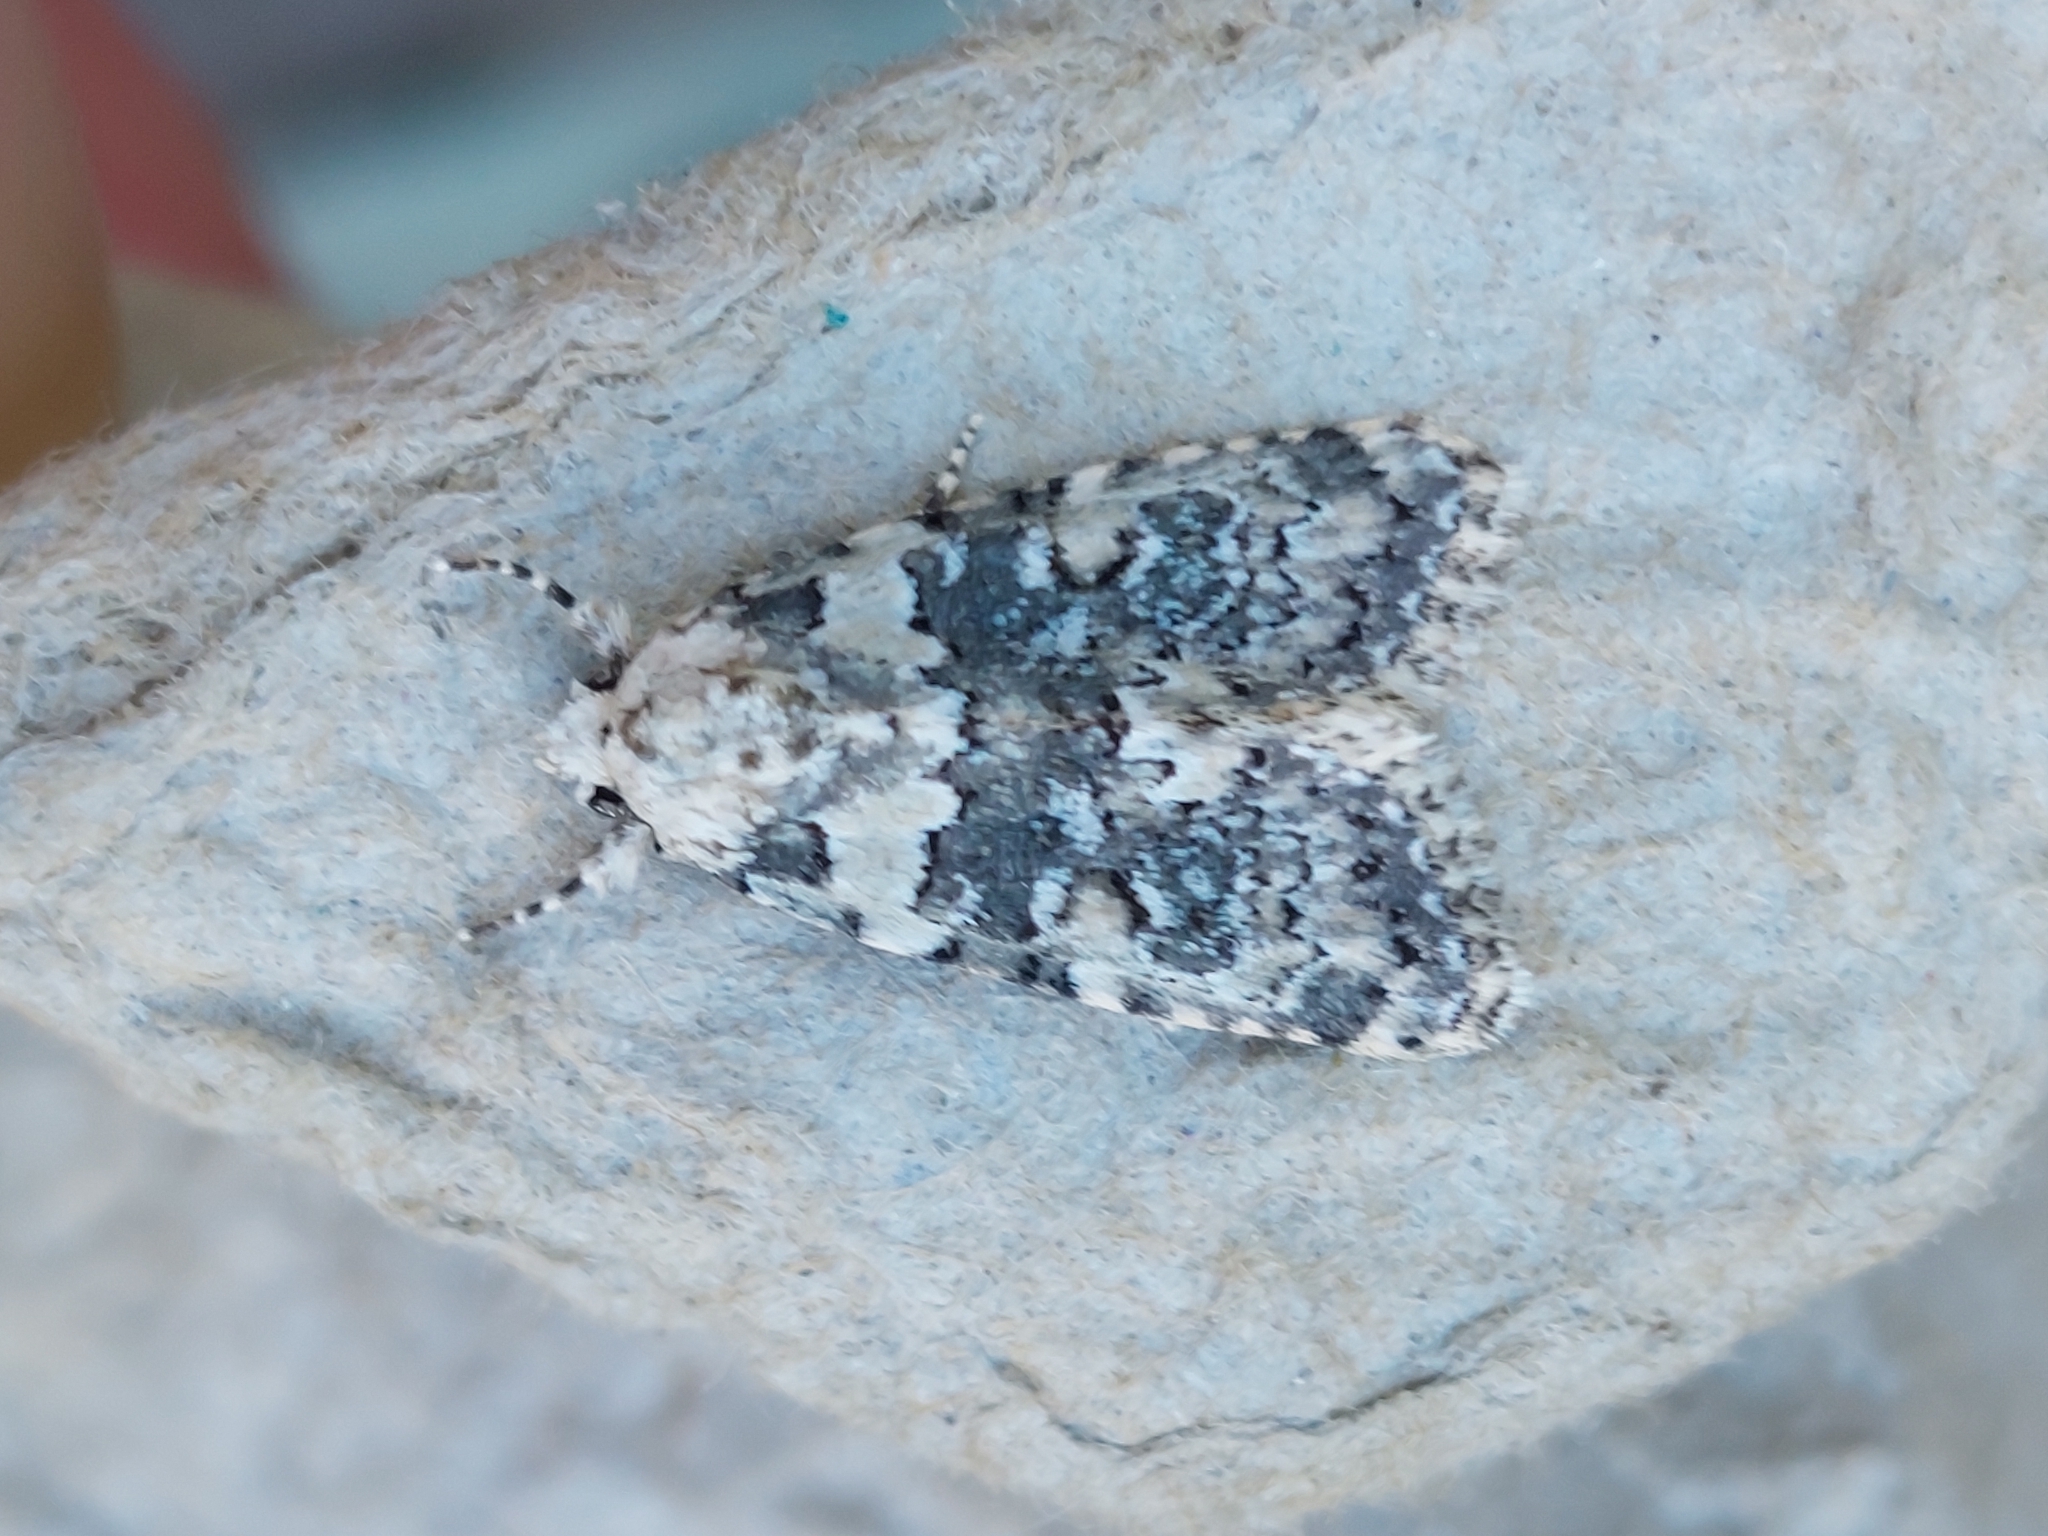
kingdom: Animalia
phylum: Arthropoda
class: Insecta
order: Lepidoptera
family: Noctuidae
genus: Bryophila
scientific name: Bryophila domestica
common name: Marbled beauty
